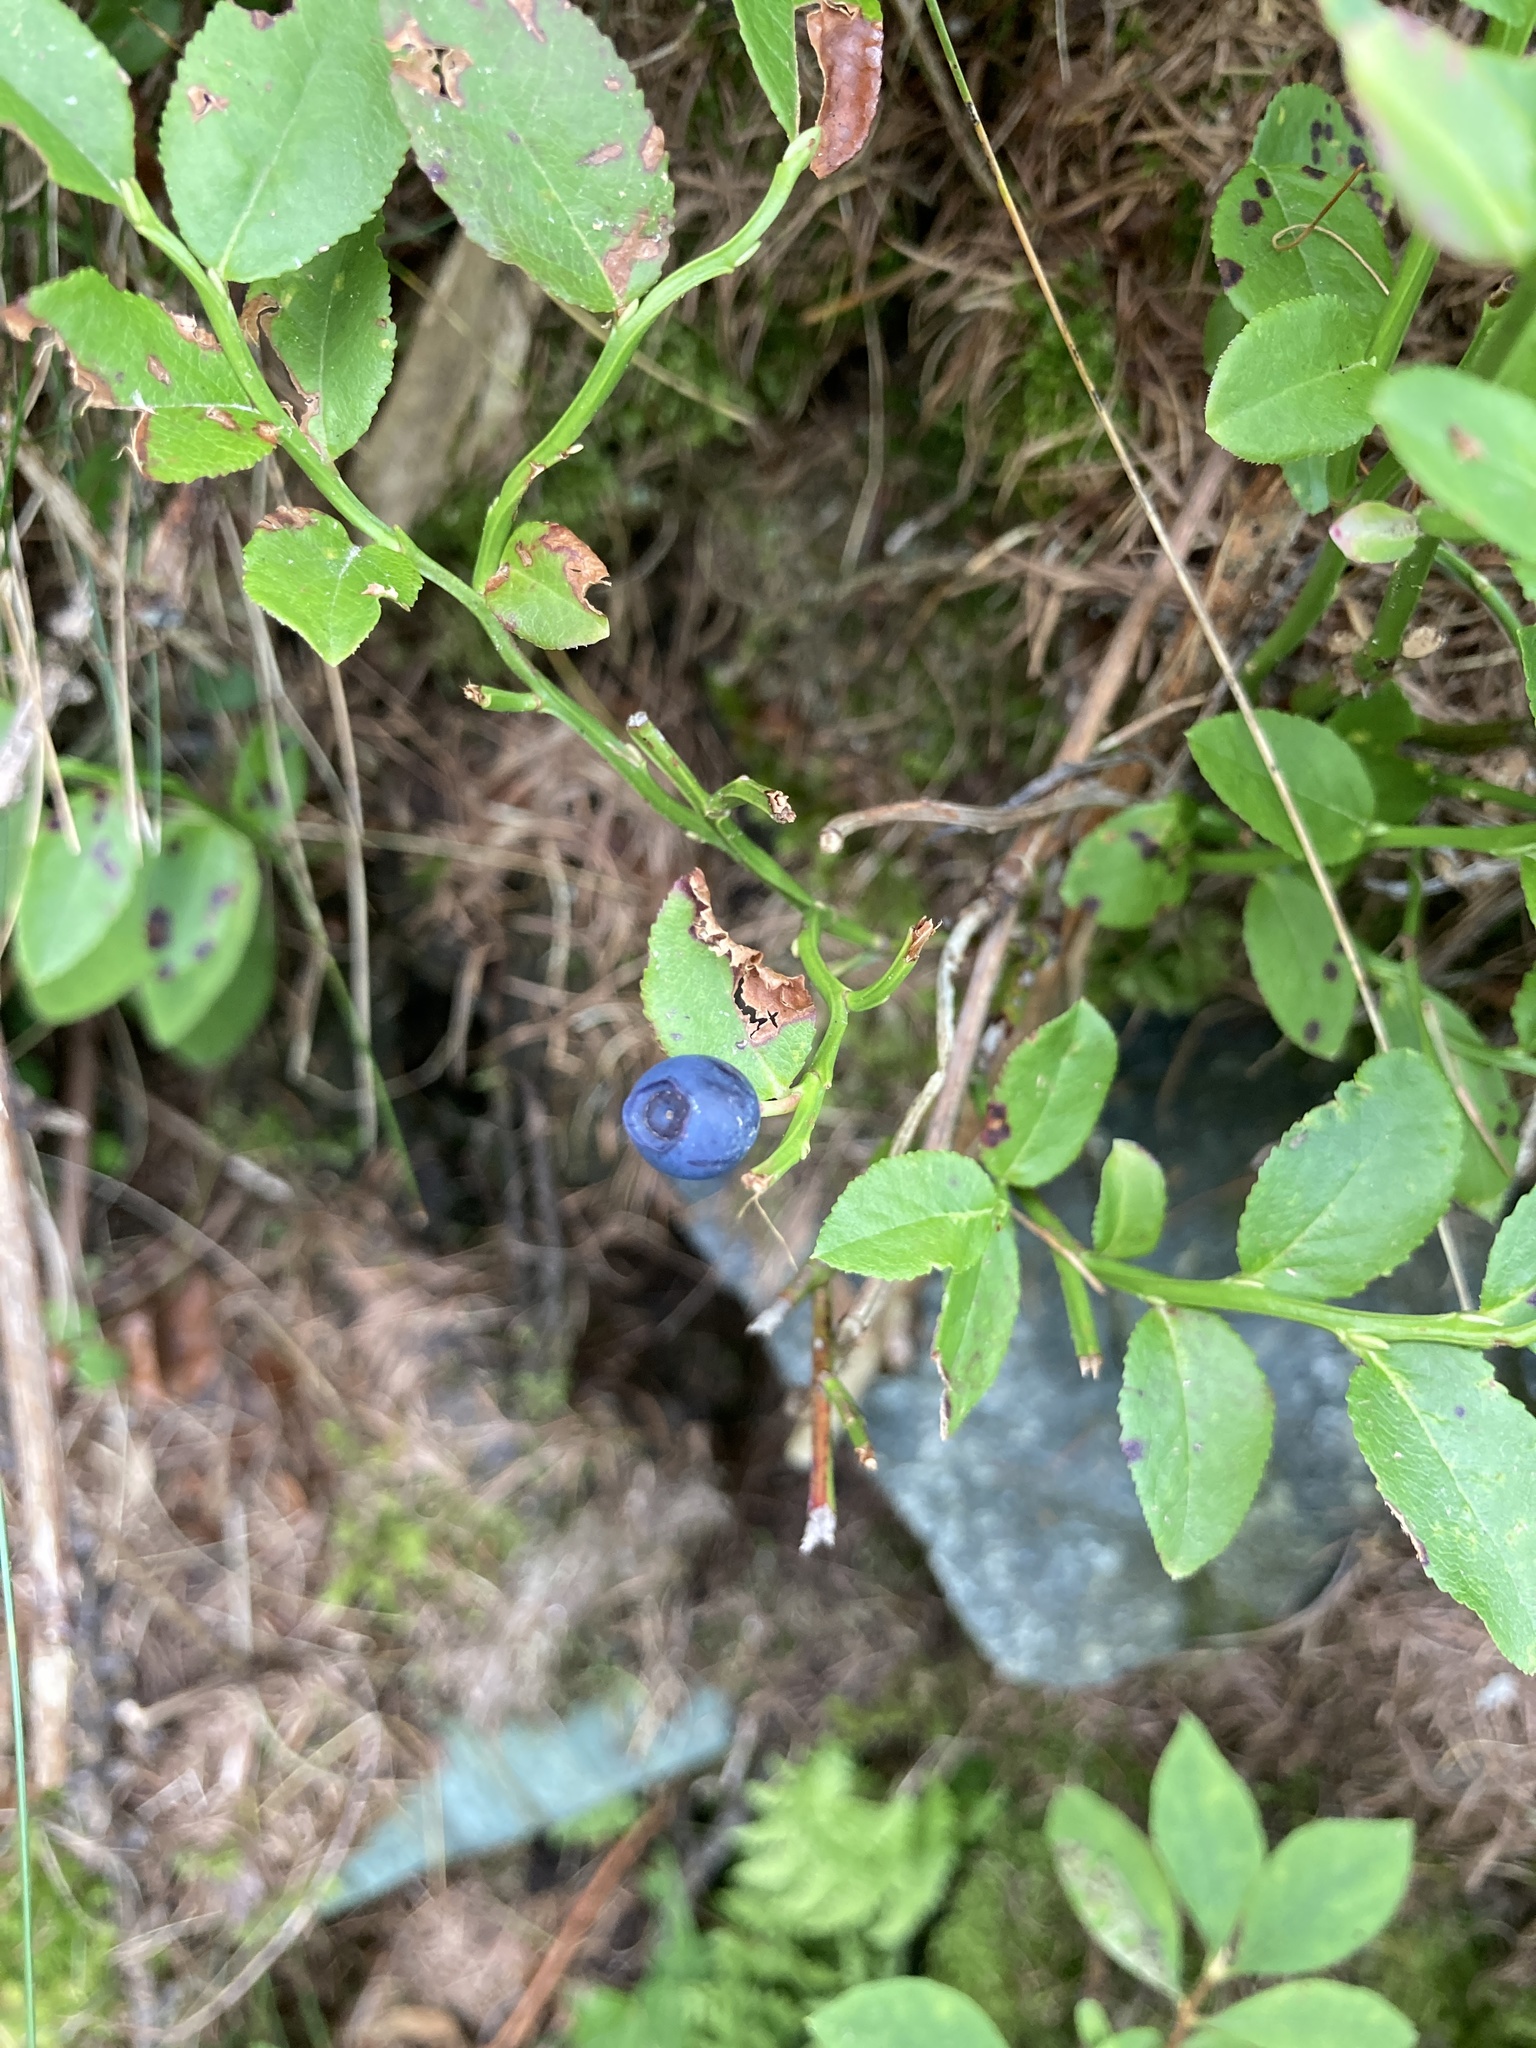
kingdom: Plantae
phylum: Tracheophyta
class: Magnoliopsida
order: Ericales
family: Ericaceae
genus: Vaccinium
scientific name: Vaccinium myrtillus
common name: Bilberry
